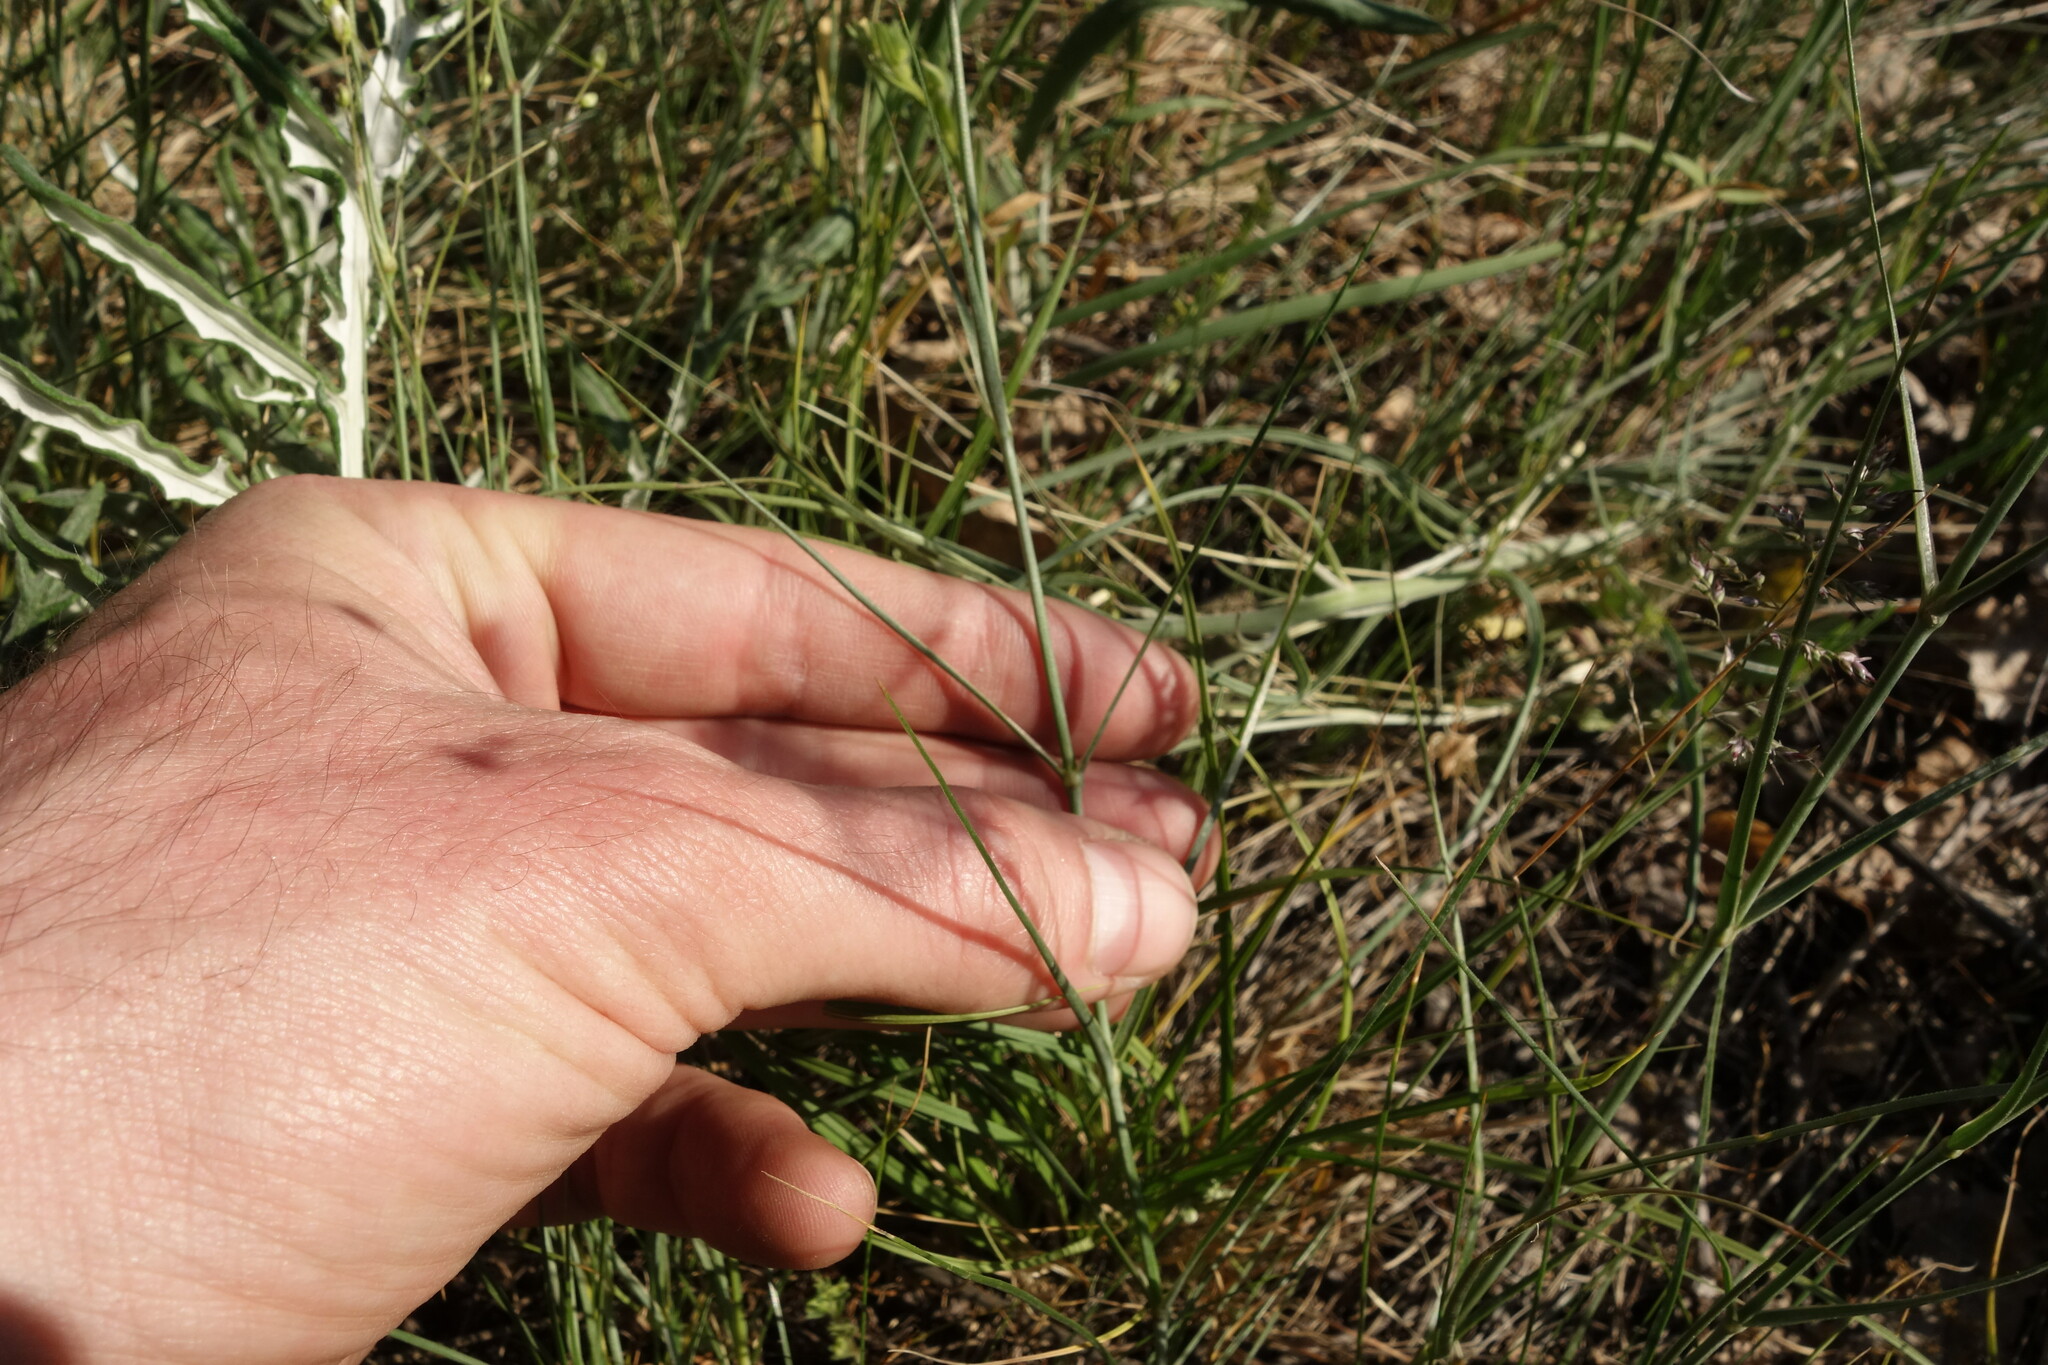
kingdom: Plantae
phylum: Tracheophyta
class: Magnoliopsida
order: Caryophyllales
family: Caryophyllaceae
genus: Eremogone
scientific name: Eremogone biebersteinii
